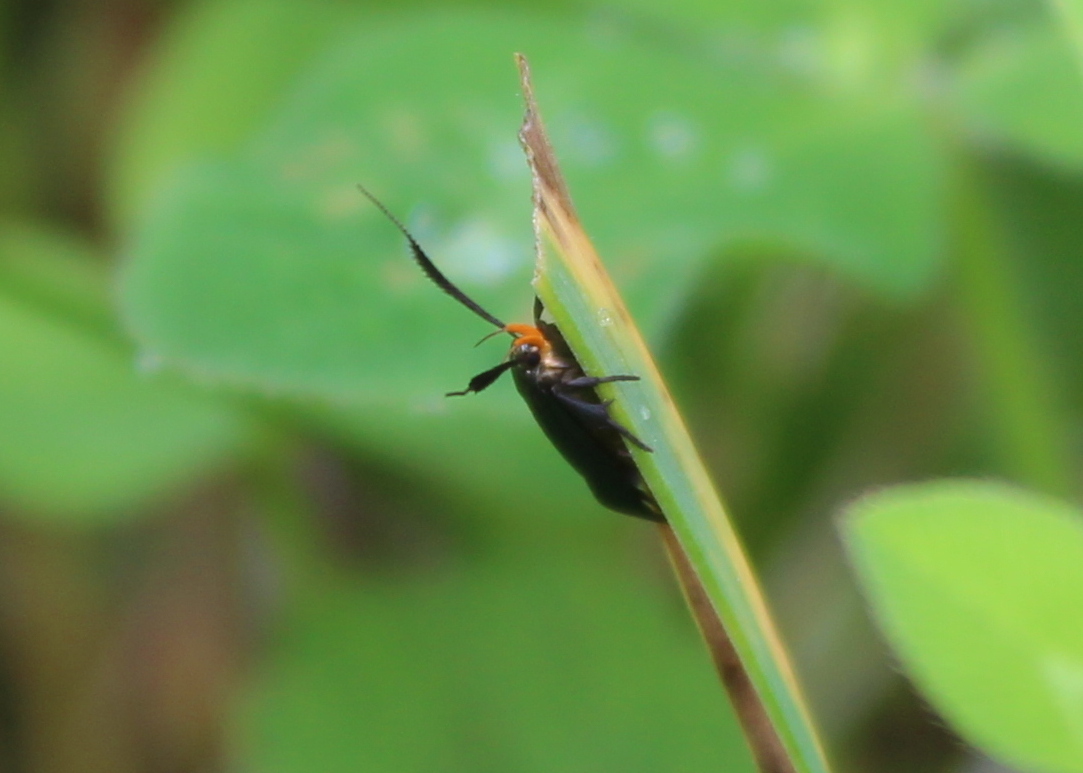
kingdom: Animalia
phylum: Arthropoda
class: Insecta
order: Lepidoptera
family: Gelechiidae
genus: Dichomeris
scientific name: Dichomeris nonstrigella
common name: Little devil moth
